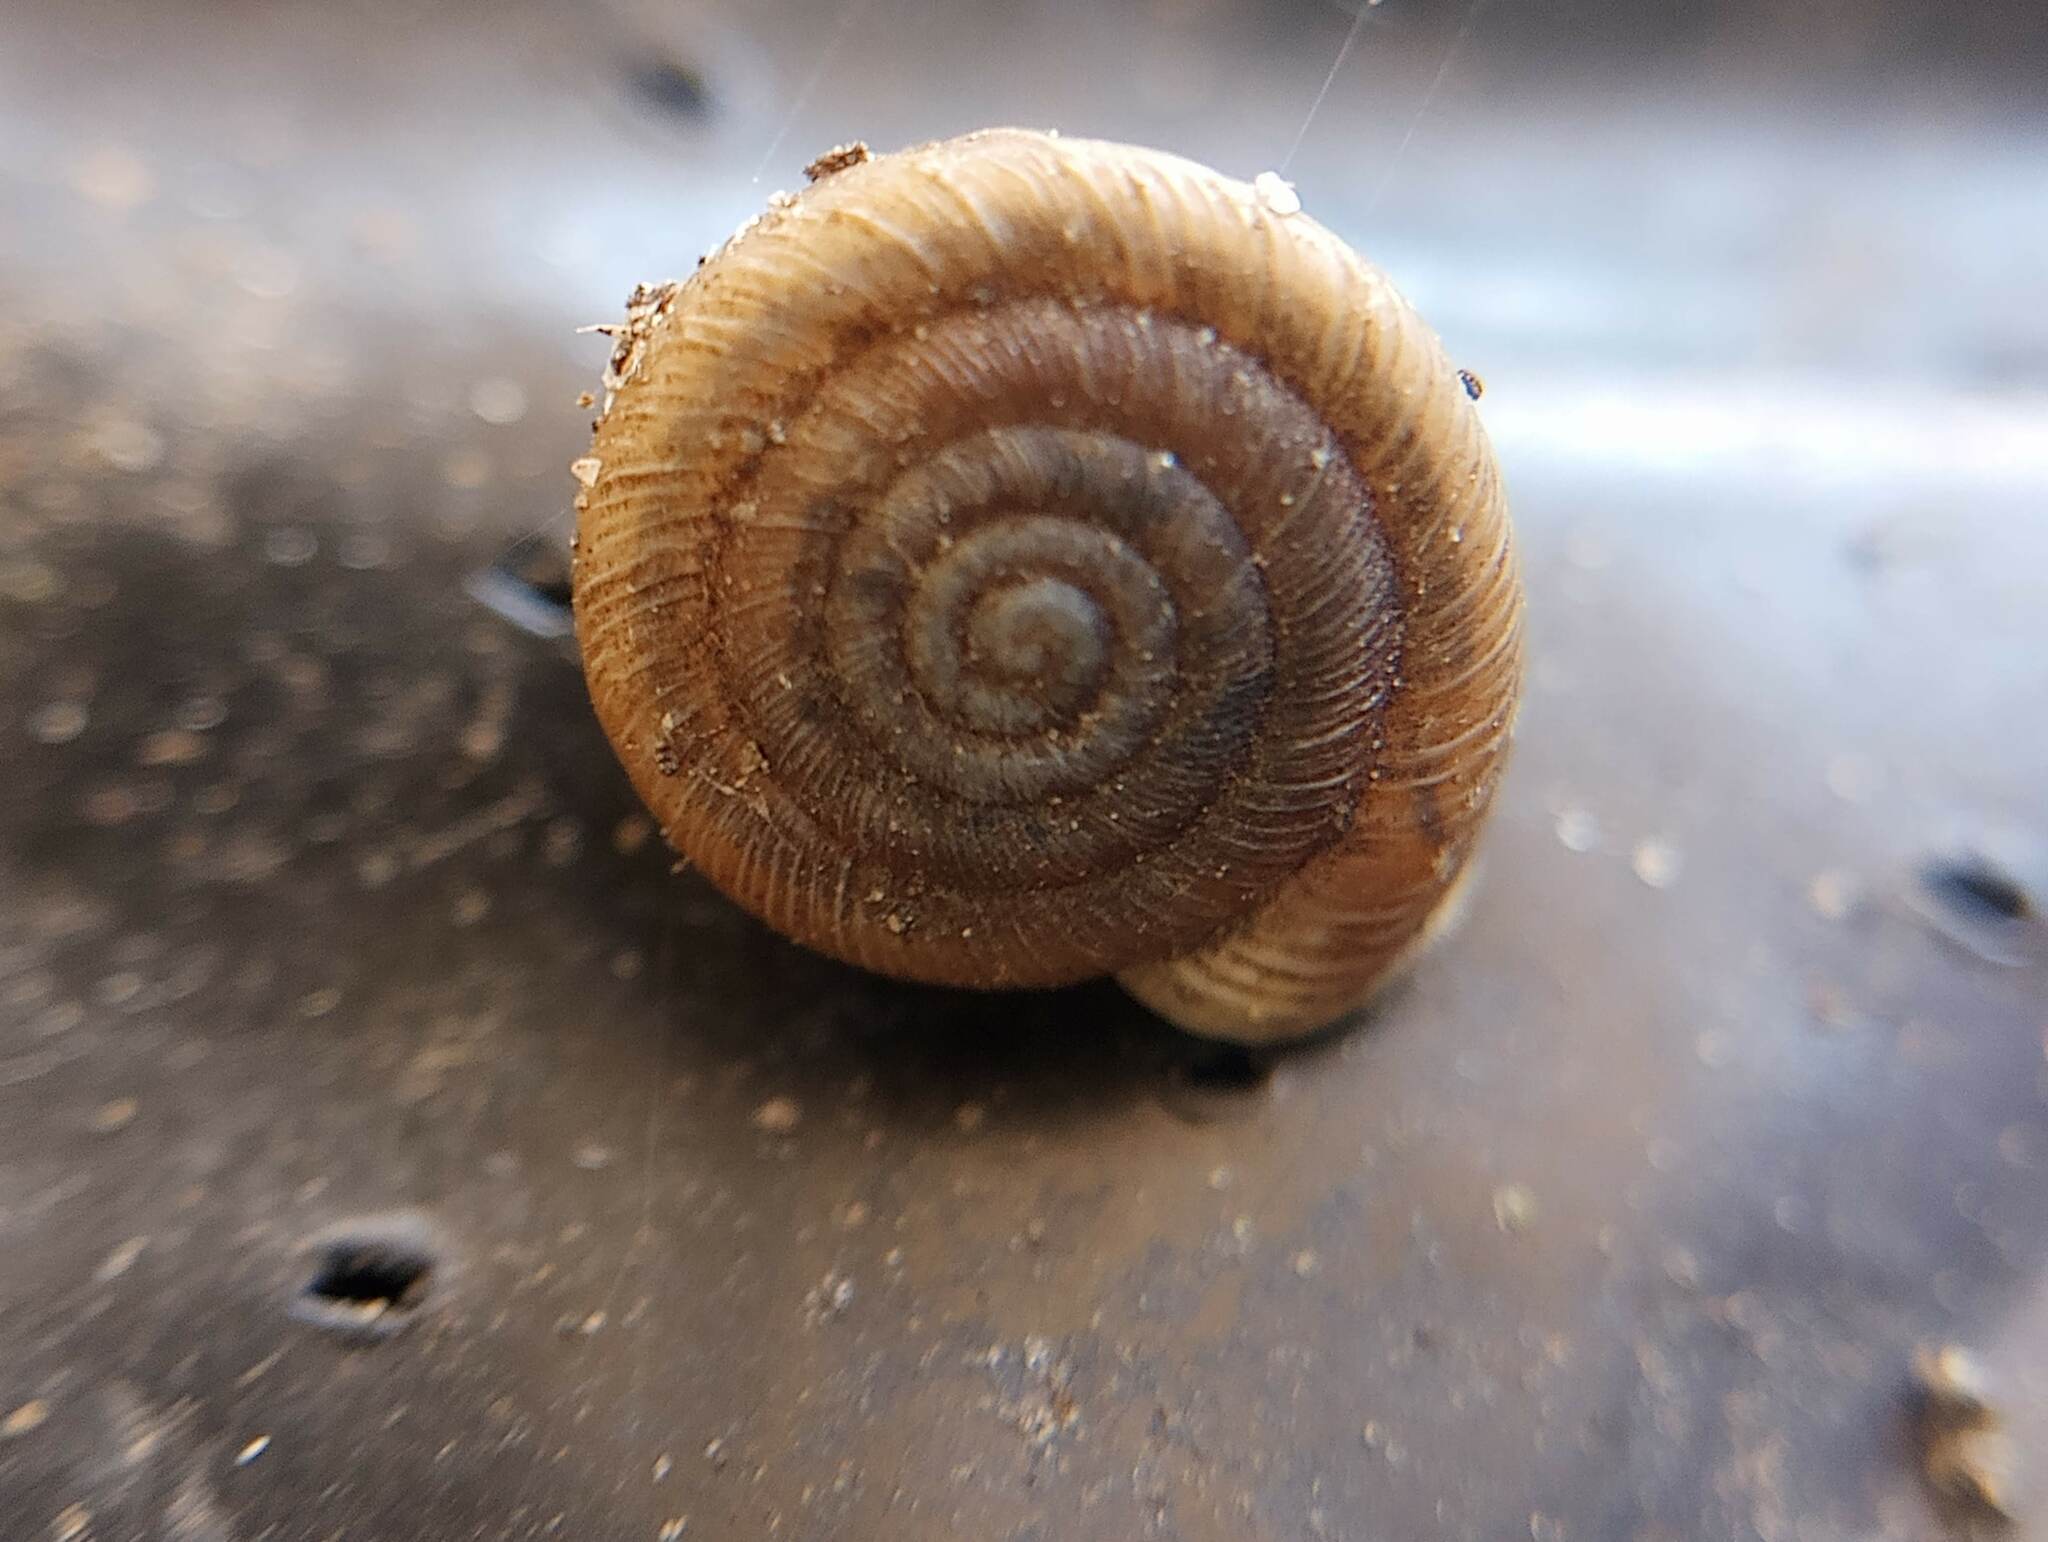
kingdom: Animalia
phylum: Mollusca
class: Gastropoda
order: Stylommatophora
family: Polygyridae
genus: Polygyra
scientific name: Polygyra cereolus
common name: Southern flatcone snail
